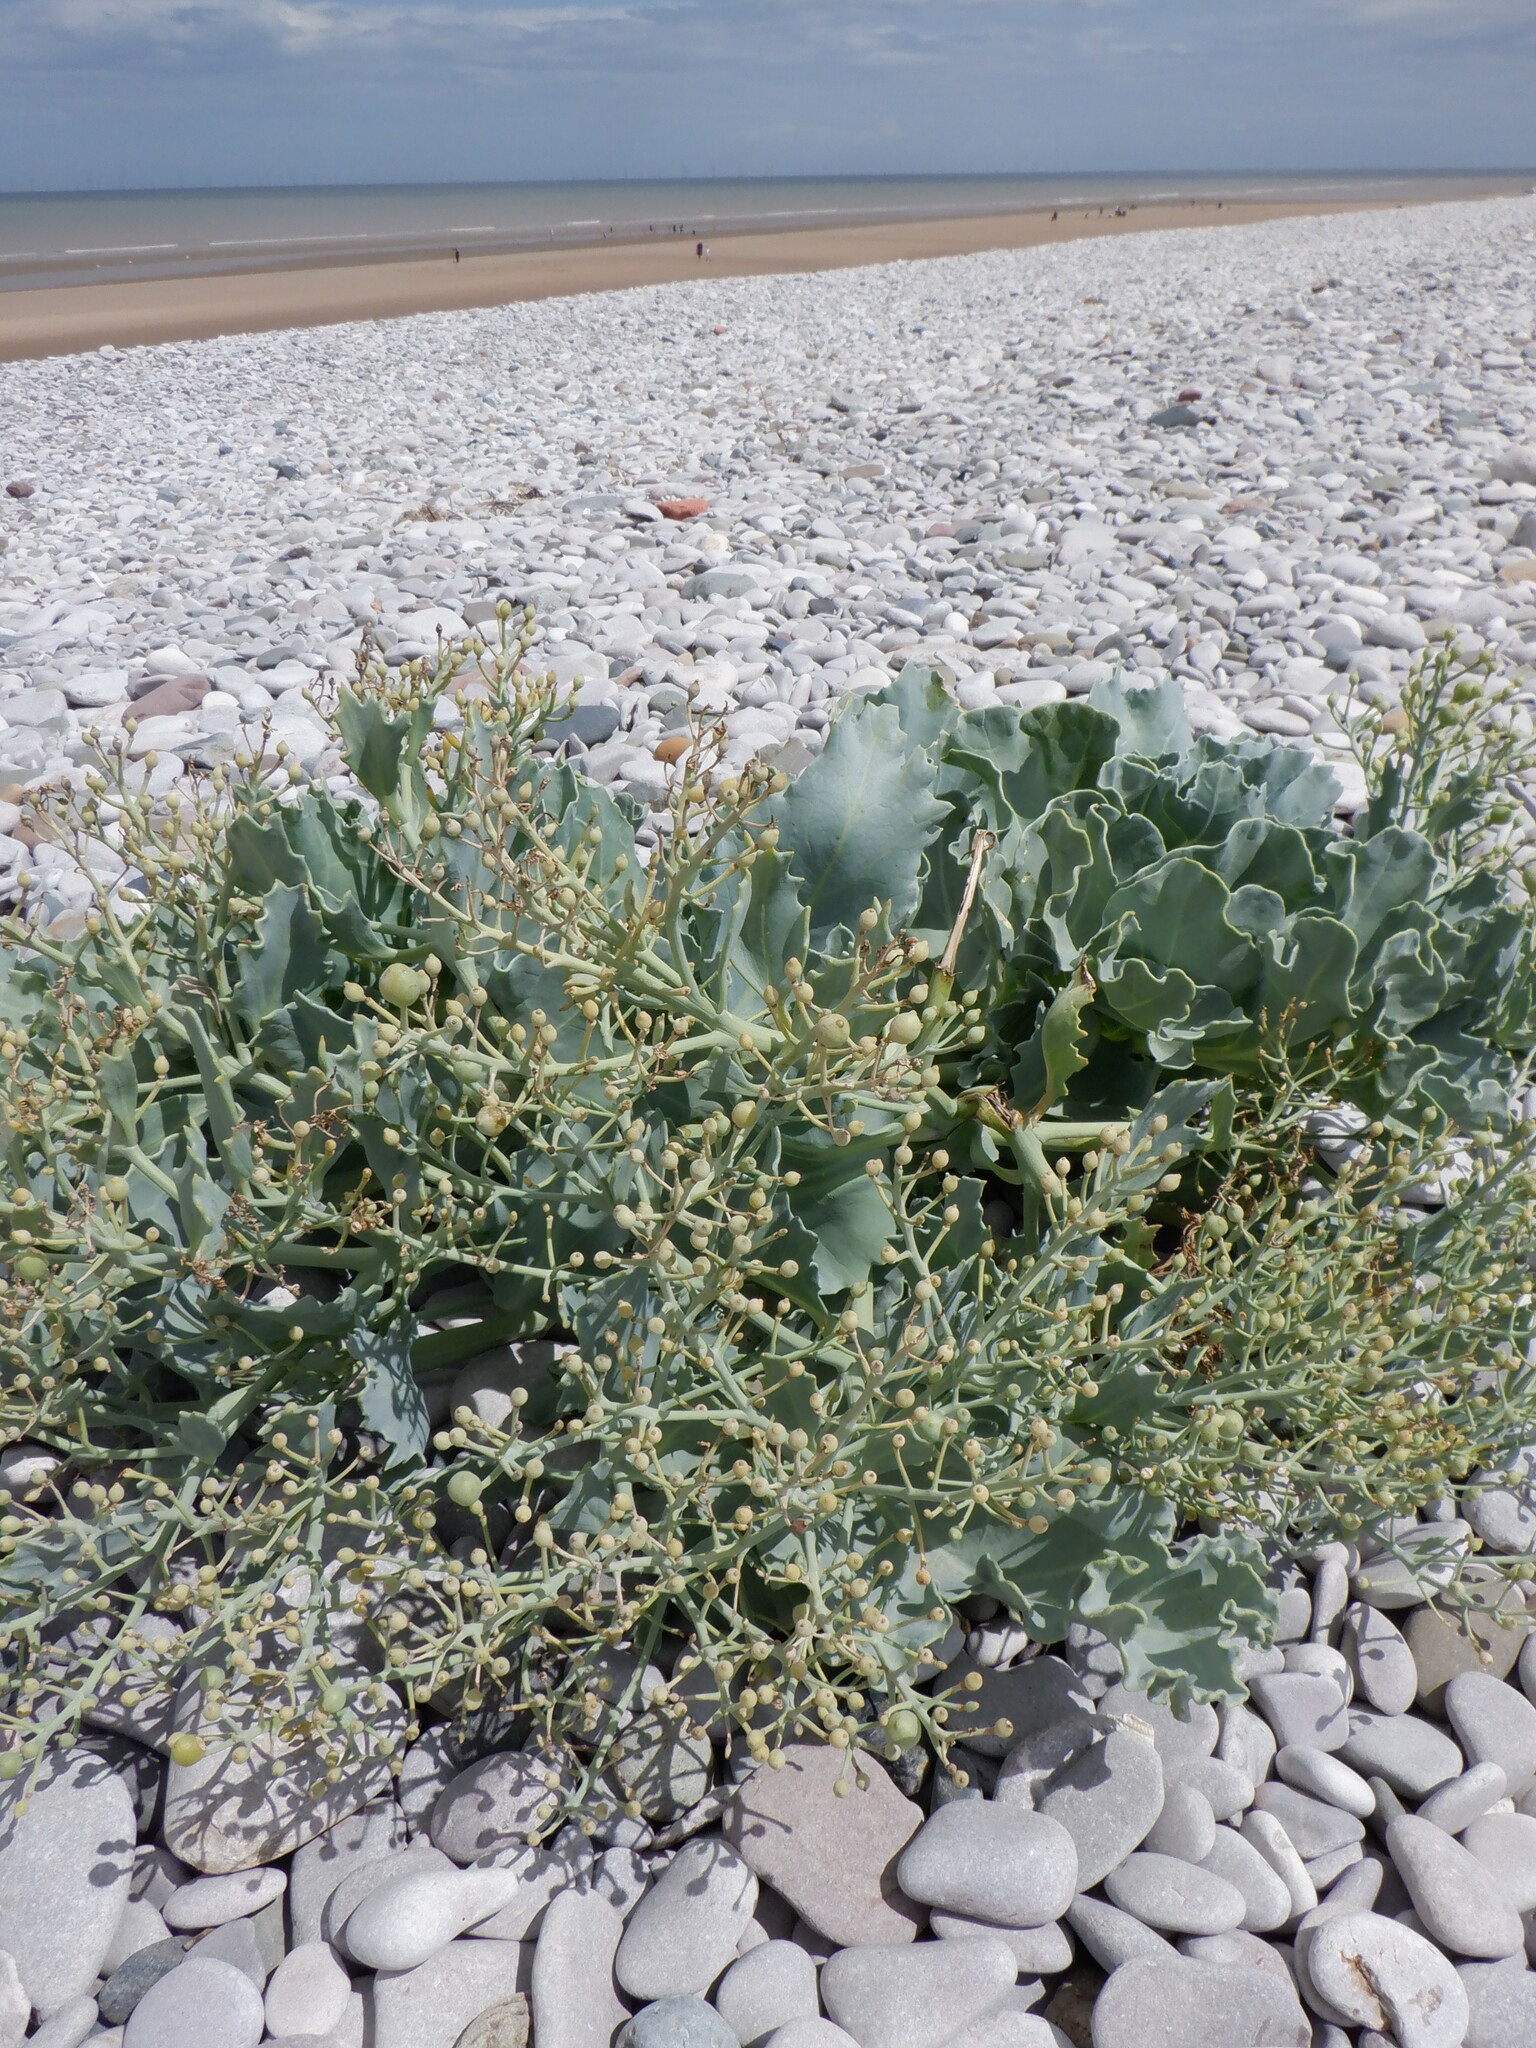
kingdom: Plantae
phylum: Tracheophyta
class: Magnoliopsida
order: Brassicales
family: Brassicaceae
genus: Crambe
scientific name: Crambe maritima
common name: Sea-kale
